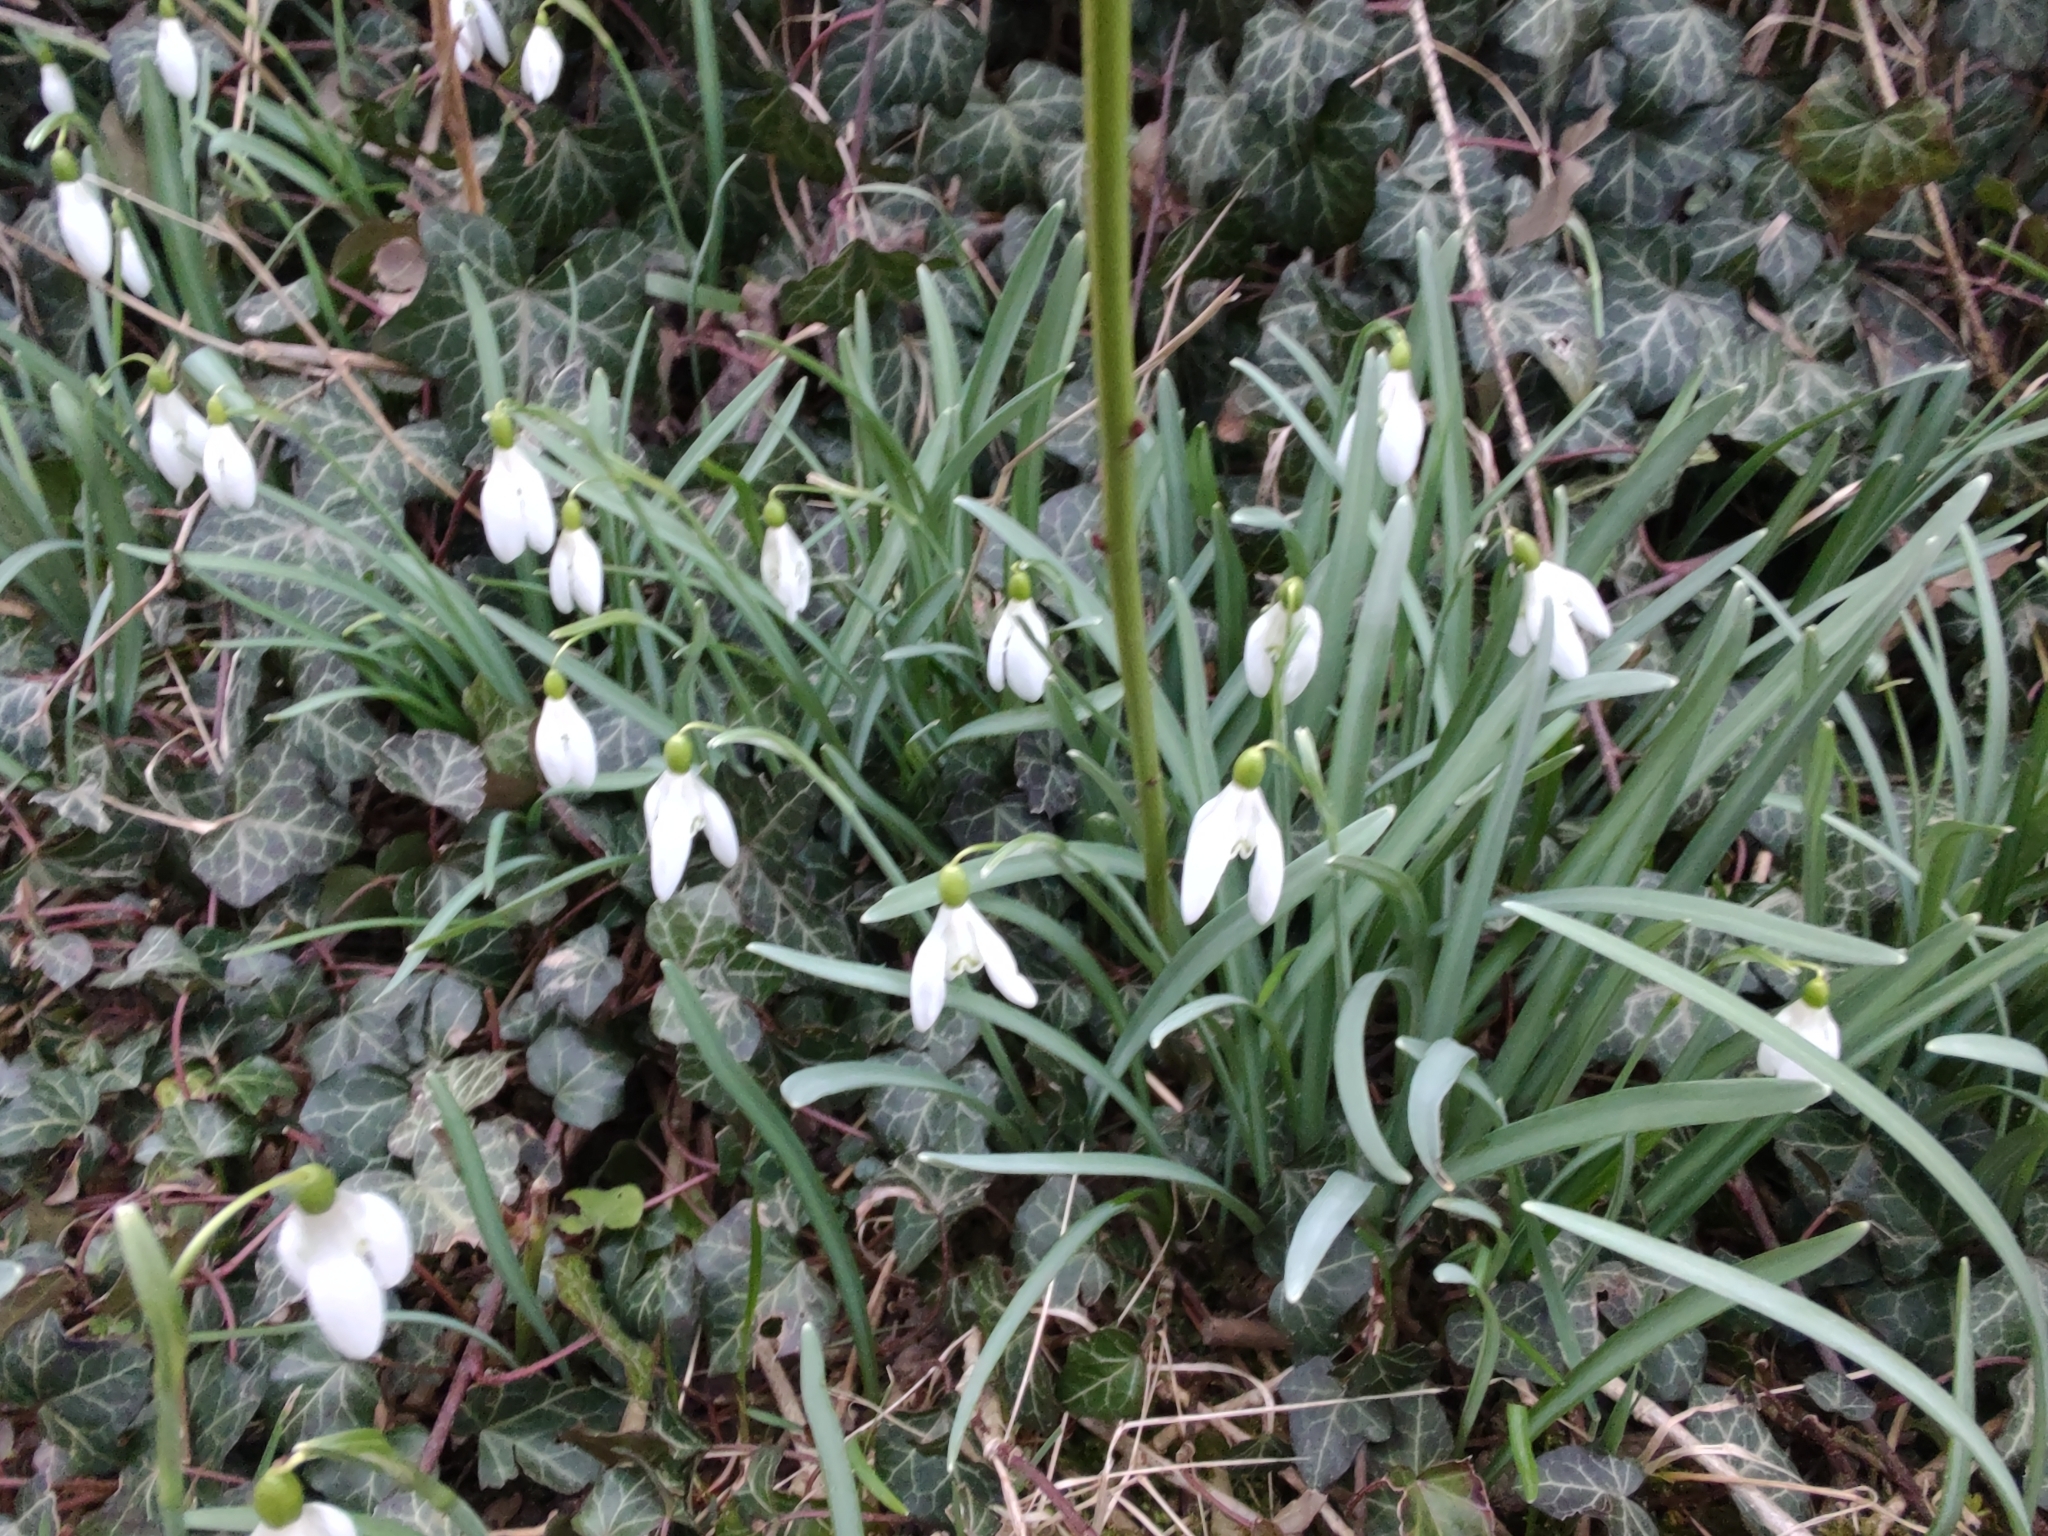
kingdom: Plantae
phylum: Tracheophyta
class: Liliopsida
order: Asparagales
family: Amaryllidaceae
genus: Galanthus
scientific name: Galanthus nivalis
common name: Snowdrop
